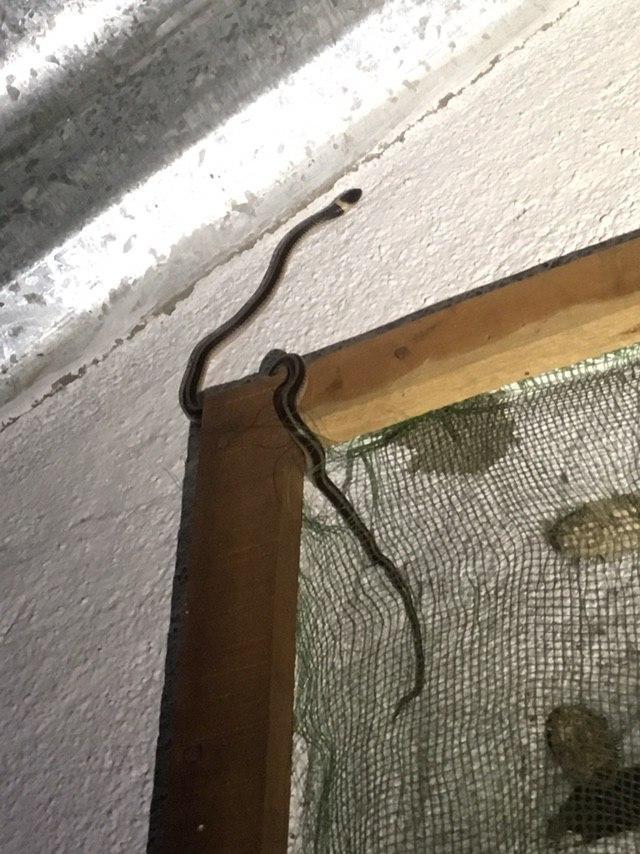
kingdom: Animalia
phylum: Chordata
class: Squamata
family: Pseudoxyrhophiidae
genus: Heteroliodon
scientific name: Heteroliodon occipitalis
